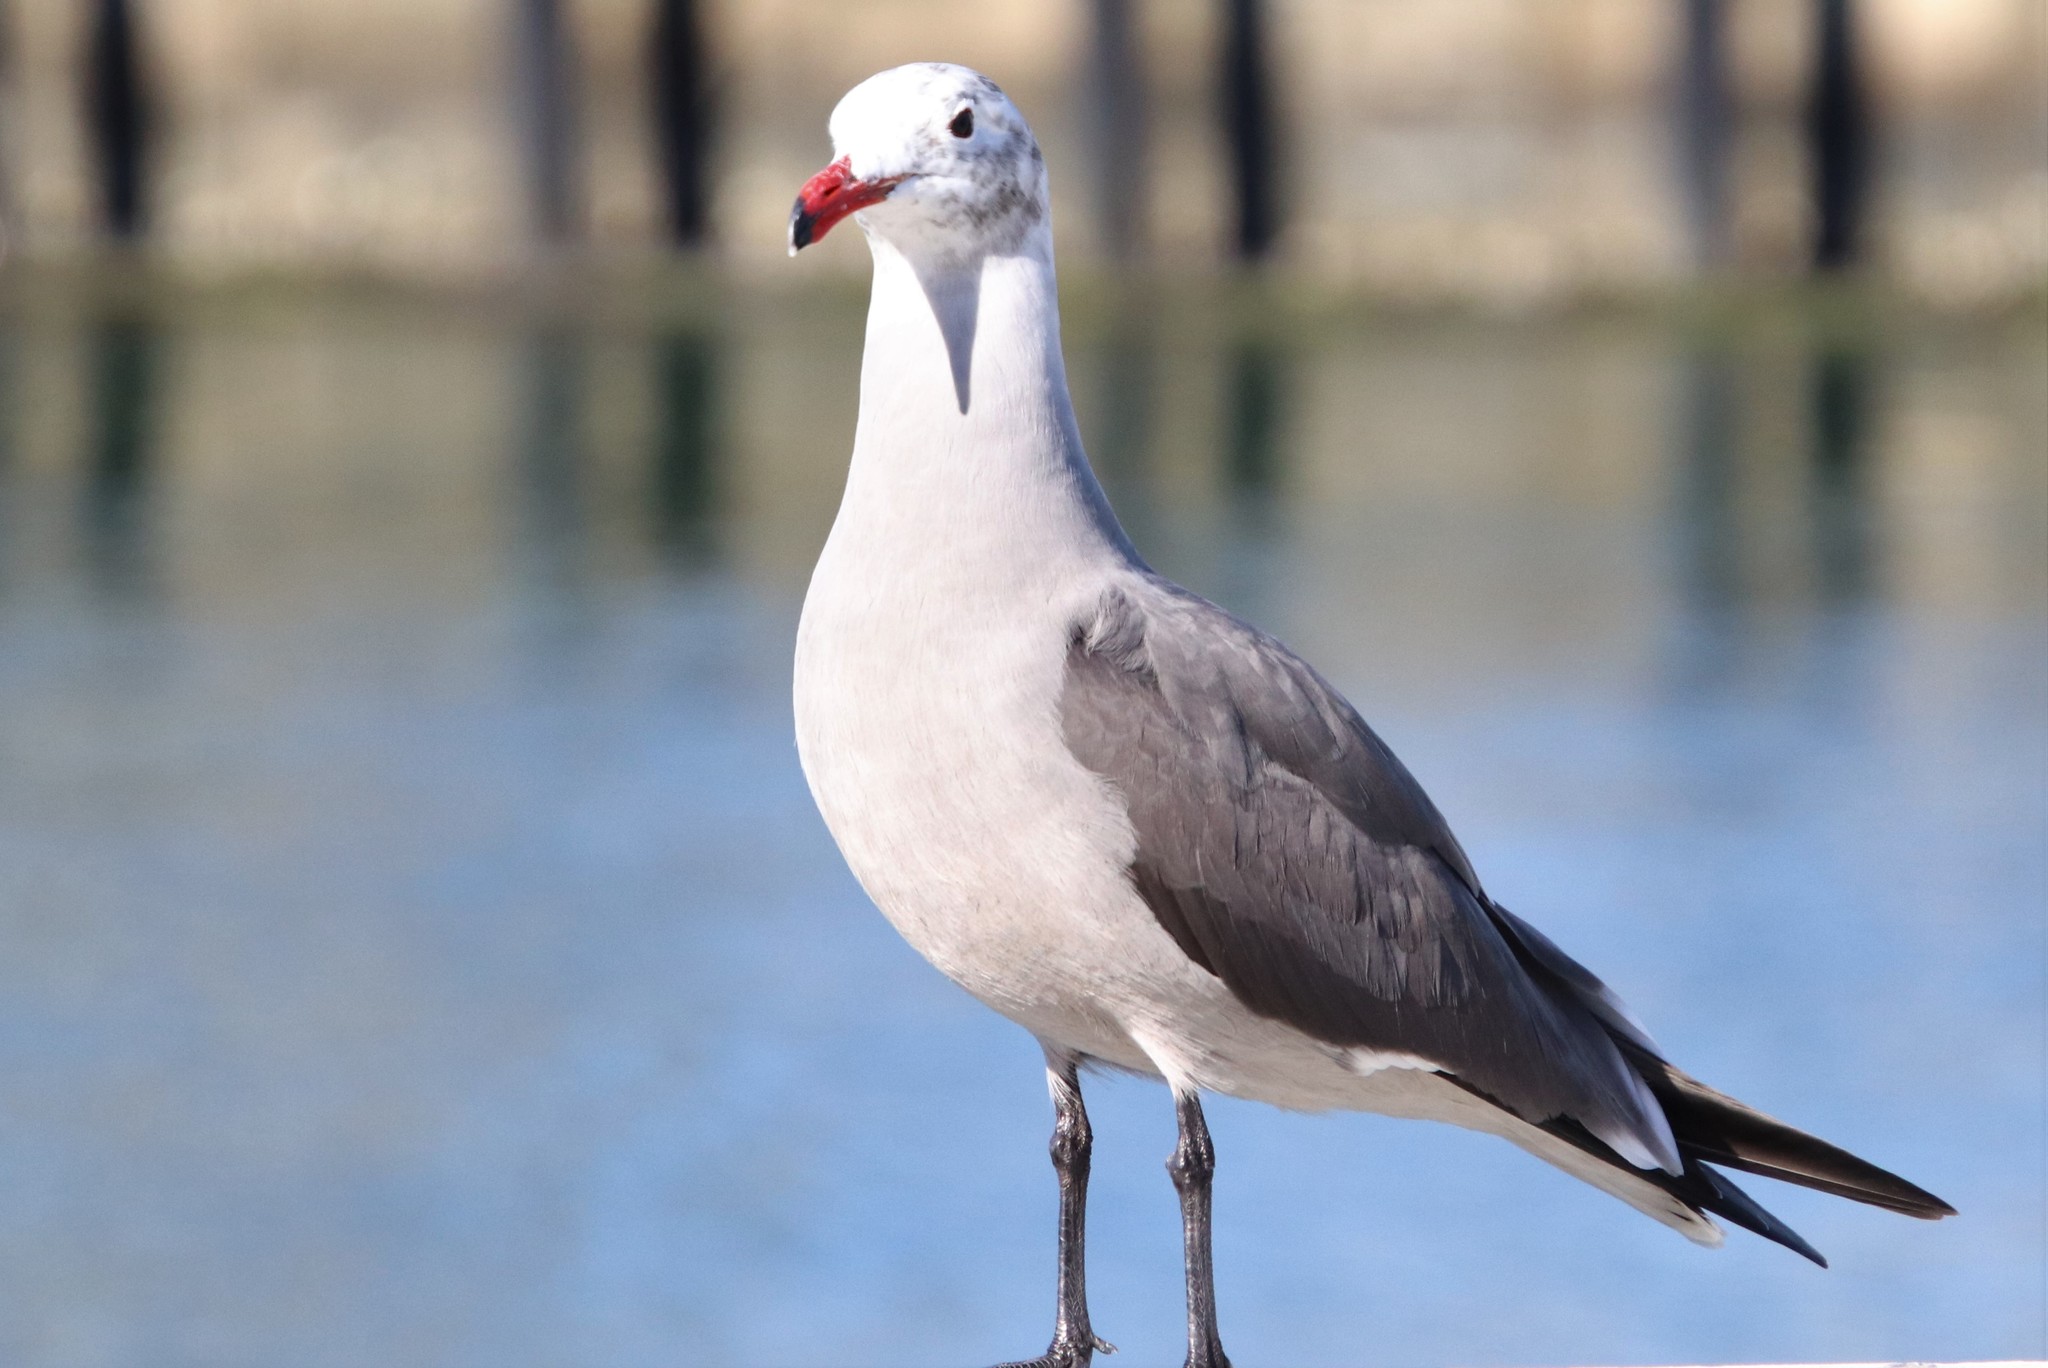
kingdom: Animalia
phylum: Chordata
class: Aves
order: Charadriiformes
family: Laridae
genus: Larus
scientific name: Larus heermanni
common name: Heermann's gull
